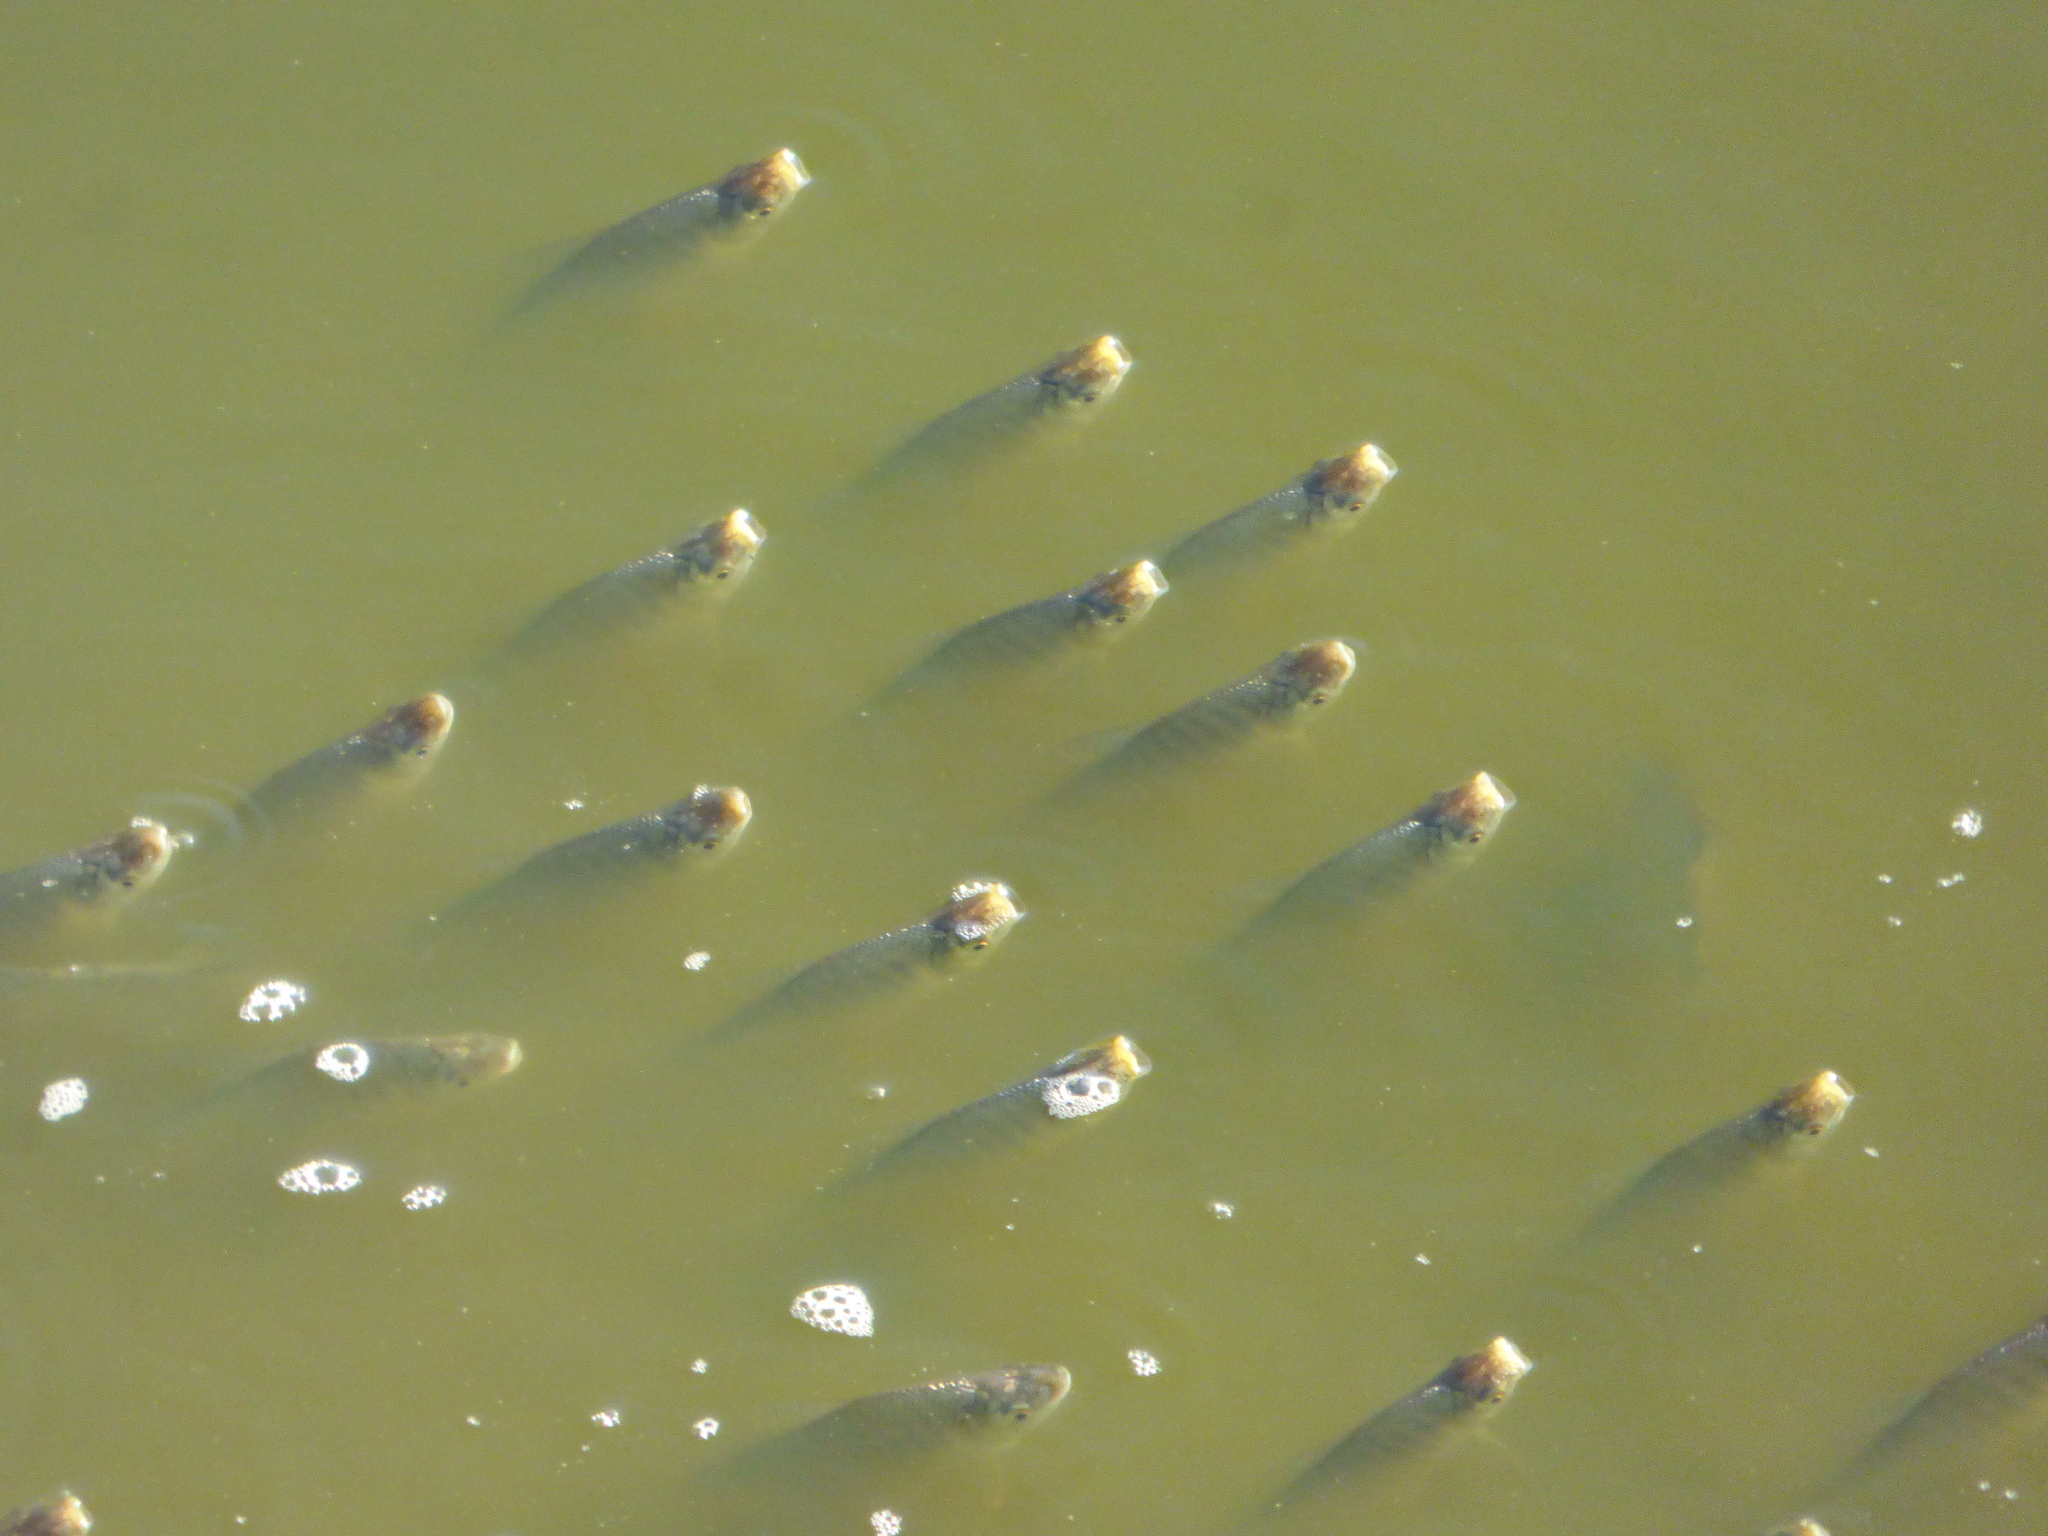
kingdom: Animalia
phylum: Chordata
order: Characiformes
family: Prochilodontidae
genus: Prochilodus
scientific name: Prochilodus lineatus
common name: Curimbata
